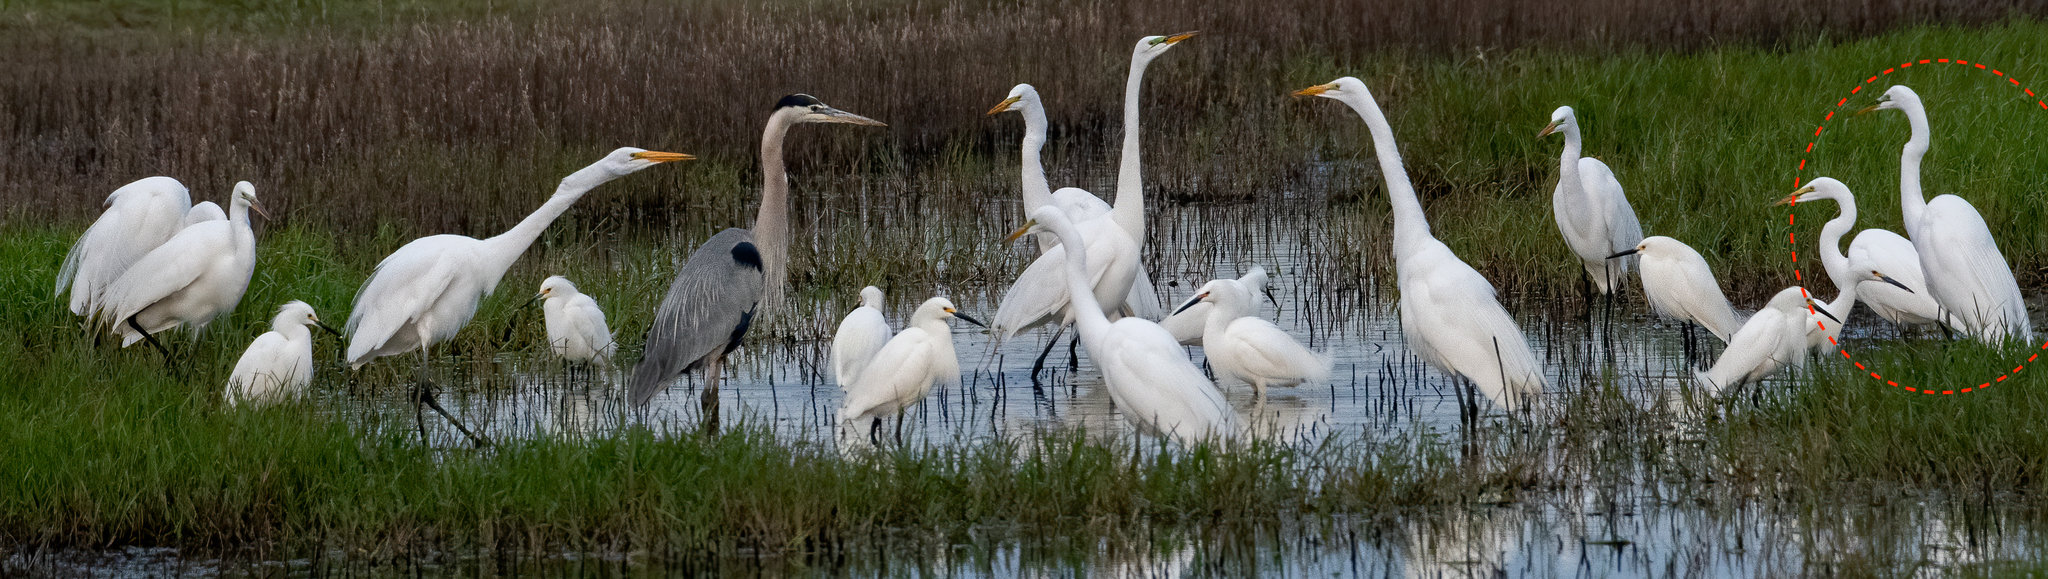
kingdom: Animalia
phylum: Chordata
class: Aves
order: Pelecaniformes
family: Ardeidae
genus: Ardea
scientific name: Ardea alba
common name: Great egret
